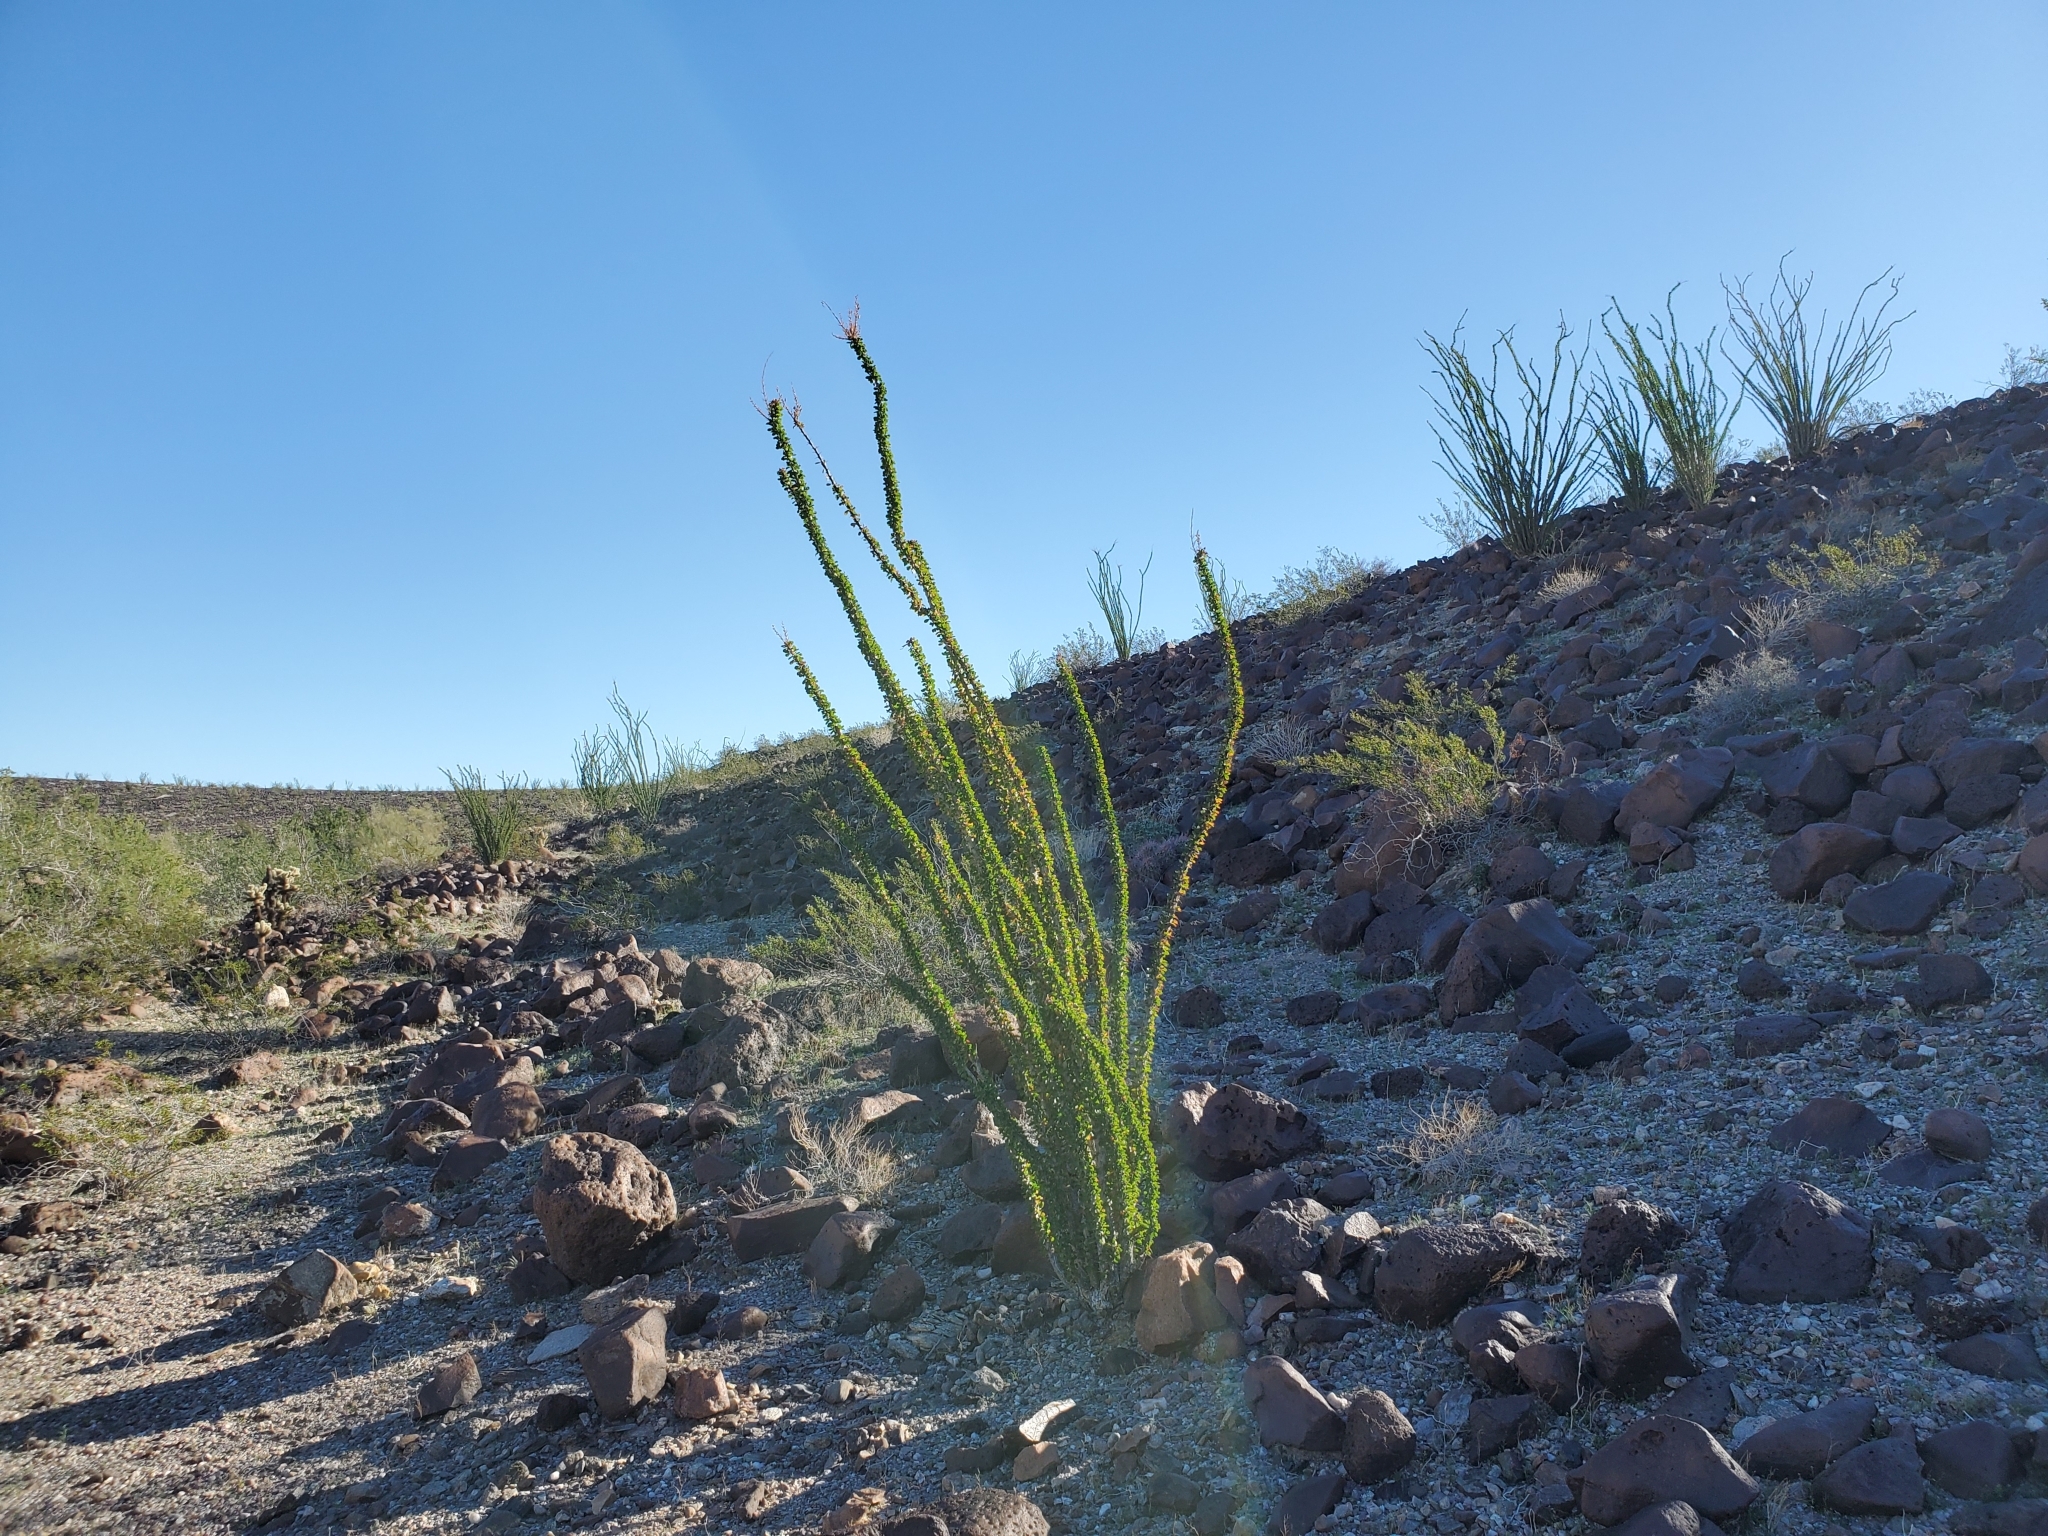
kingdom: Plantae
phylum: Tracheophyta
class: Magnoliopsida
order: Ericales
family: Fouquieriaceae
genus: Fouquieria
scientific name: Fouquieria splendens
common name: Vine-cactus
